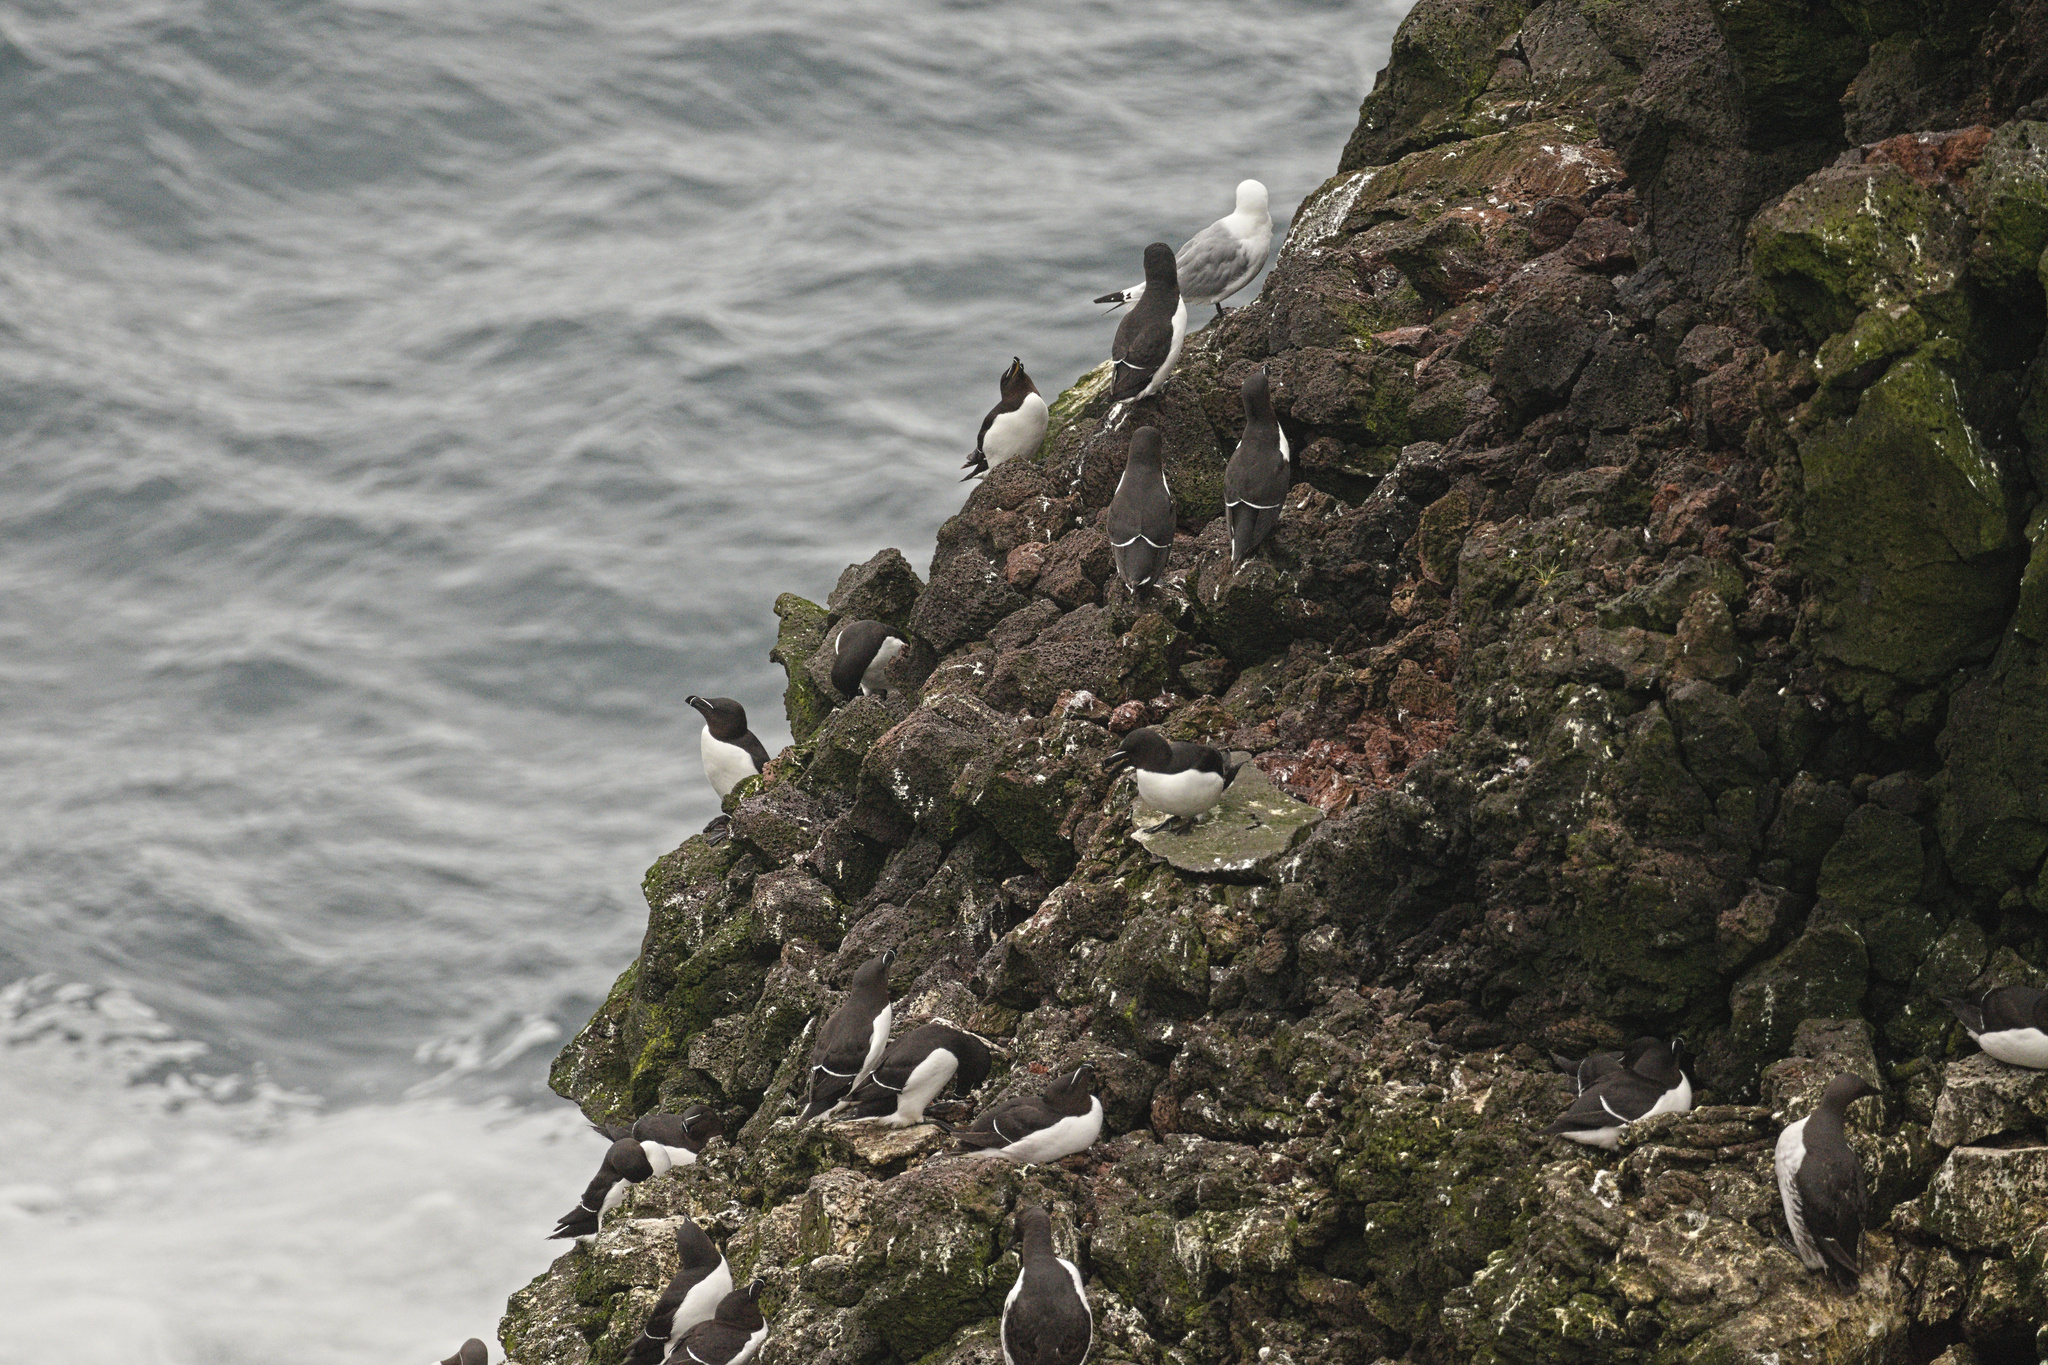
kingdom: Animalia
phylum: Chordata
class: Aves
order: Charadriiformes
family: Laridae
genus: Rissa
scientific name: Rissa tridactyla
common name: Black-legged kittiwake
